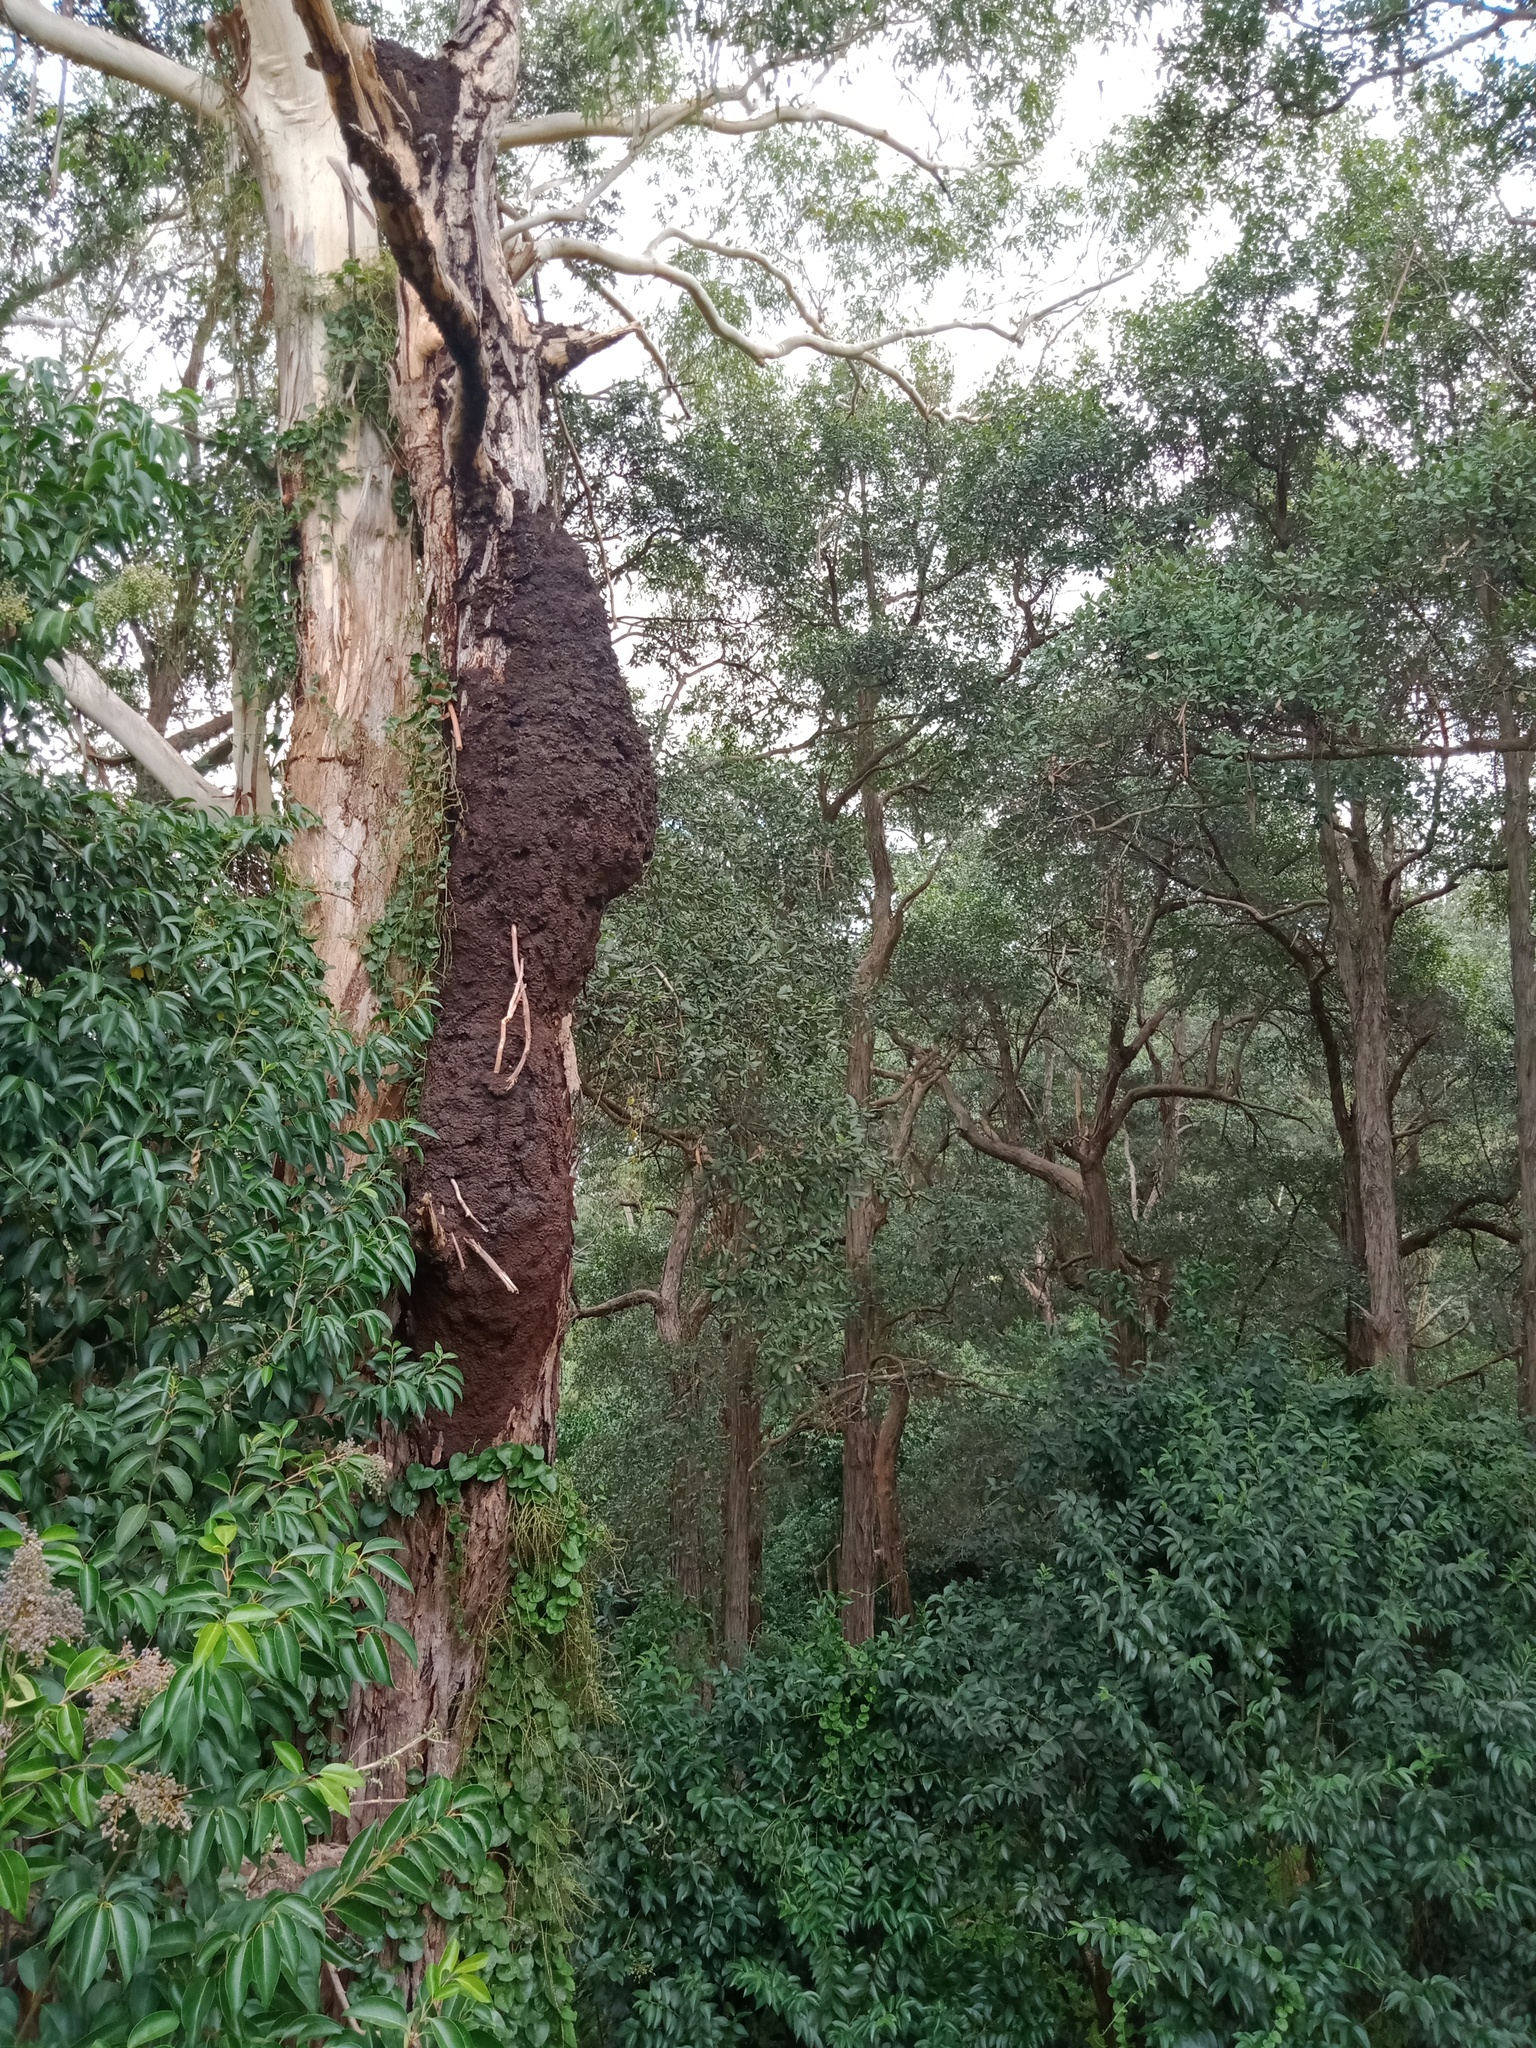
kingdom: Plantae
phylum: Tracheophyta
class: Magnoliopsida
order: Caryophyllales
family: Basellaceae
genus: Anredera
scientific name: Anredera cordifolia
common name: Heartleaf madeiravine
